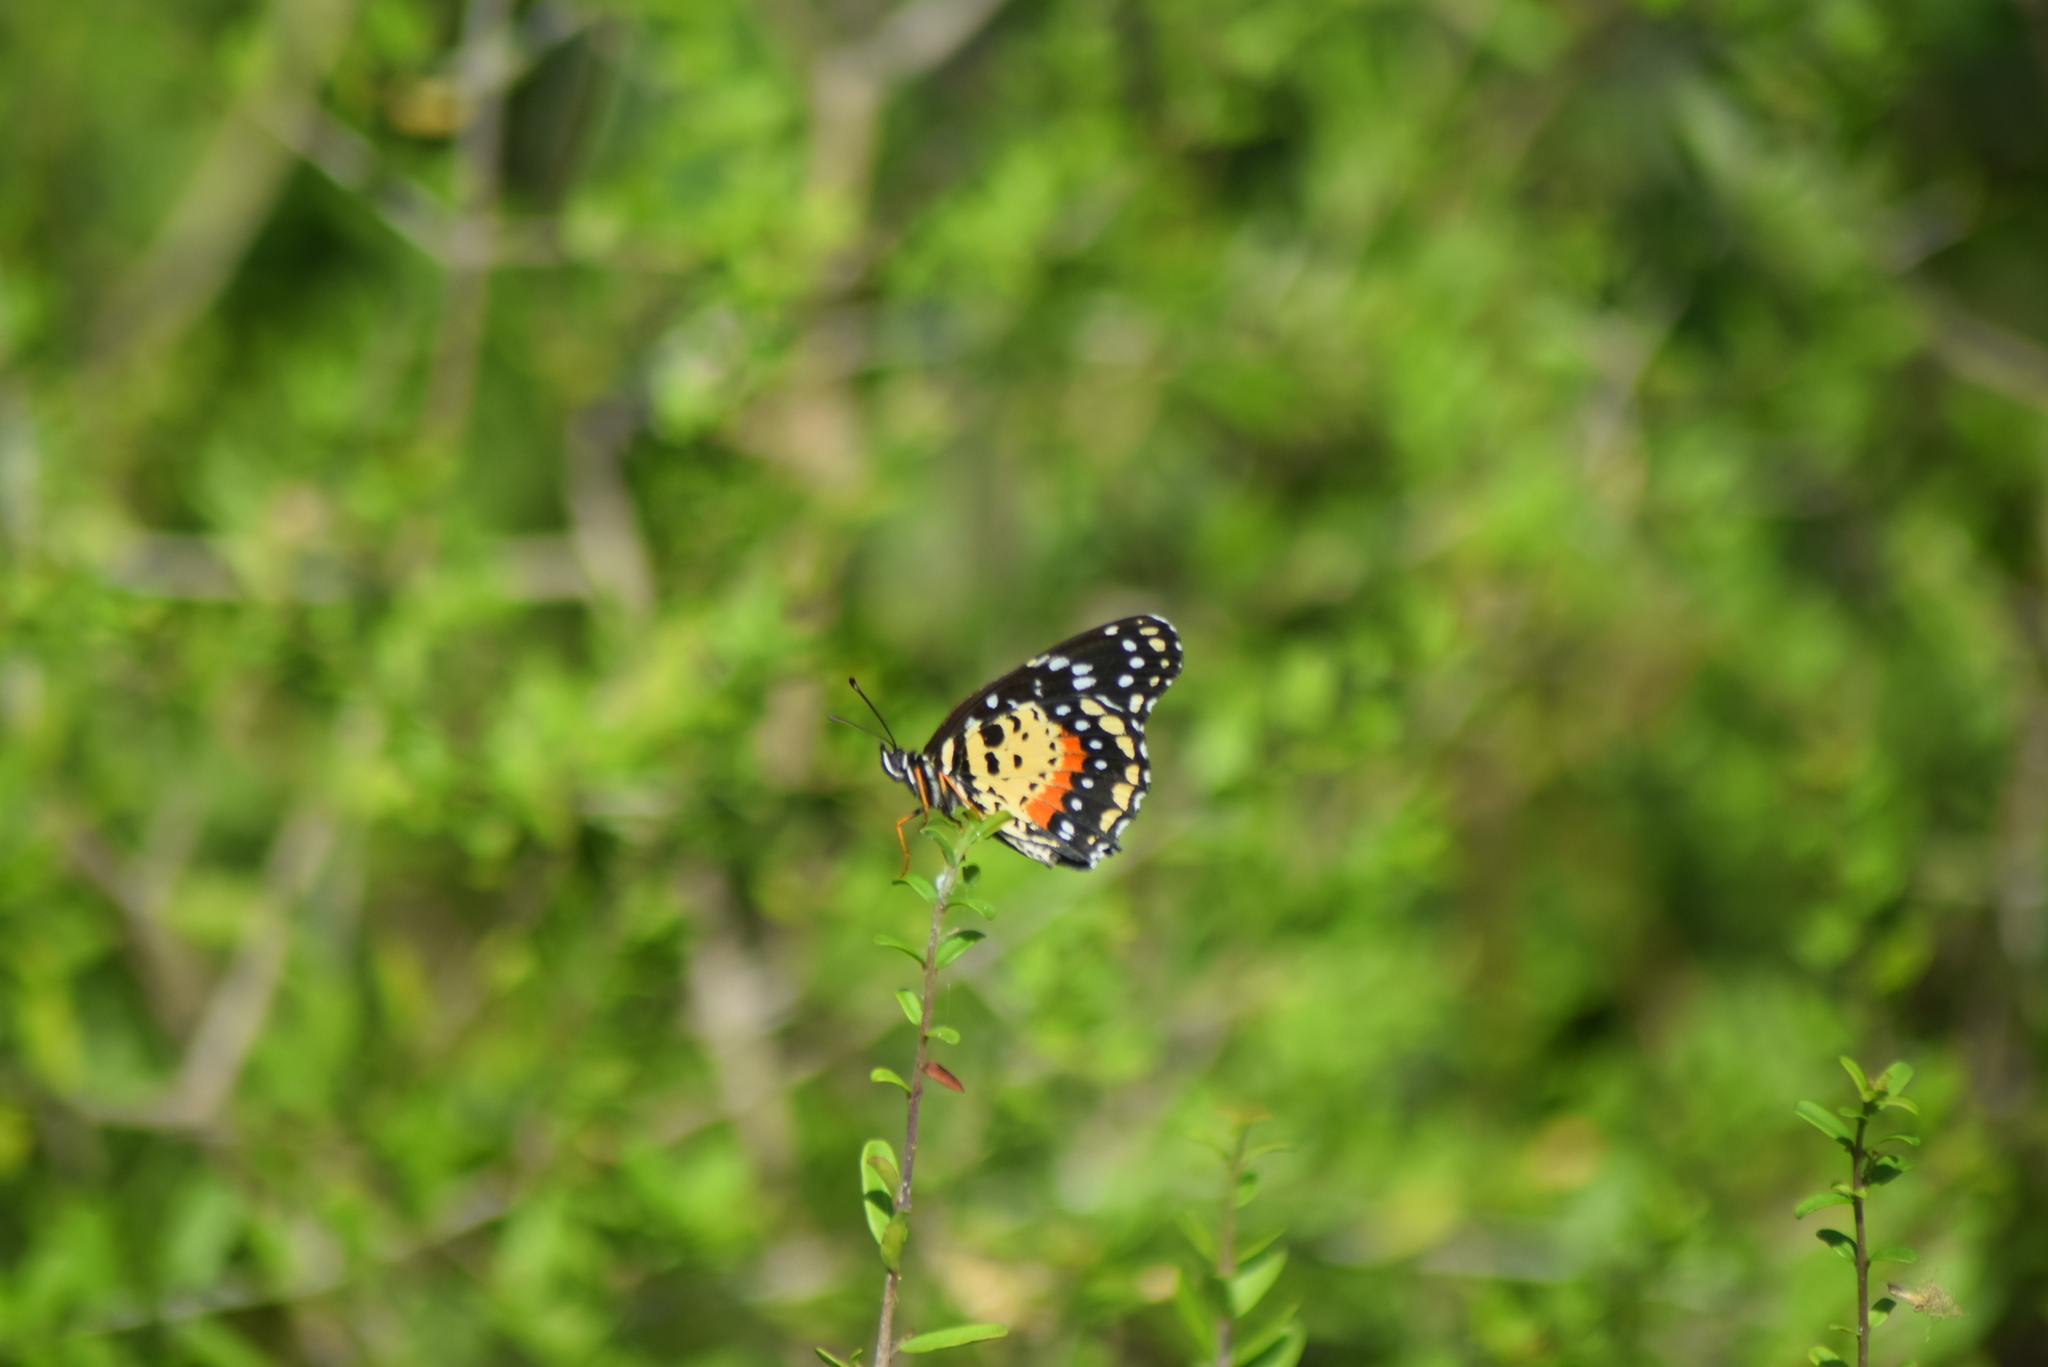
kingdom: Animalia
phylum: Arthropoda
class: Insecta
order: Lepidoptera
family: Nymphalidae
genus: Chlosyne
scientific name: Chlosyne janais
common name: Crimson patch
